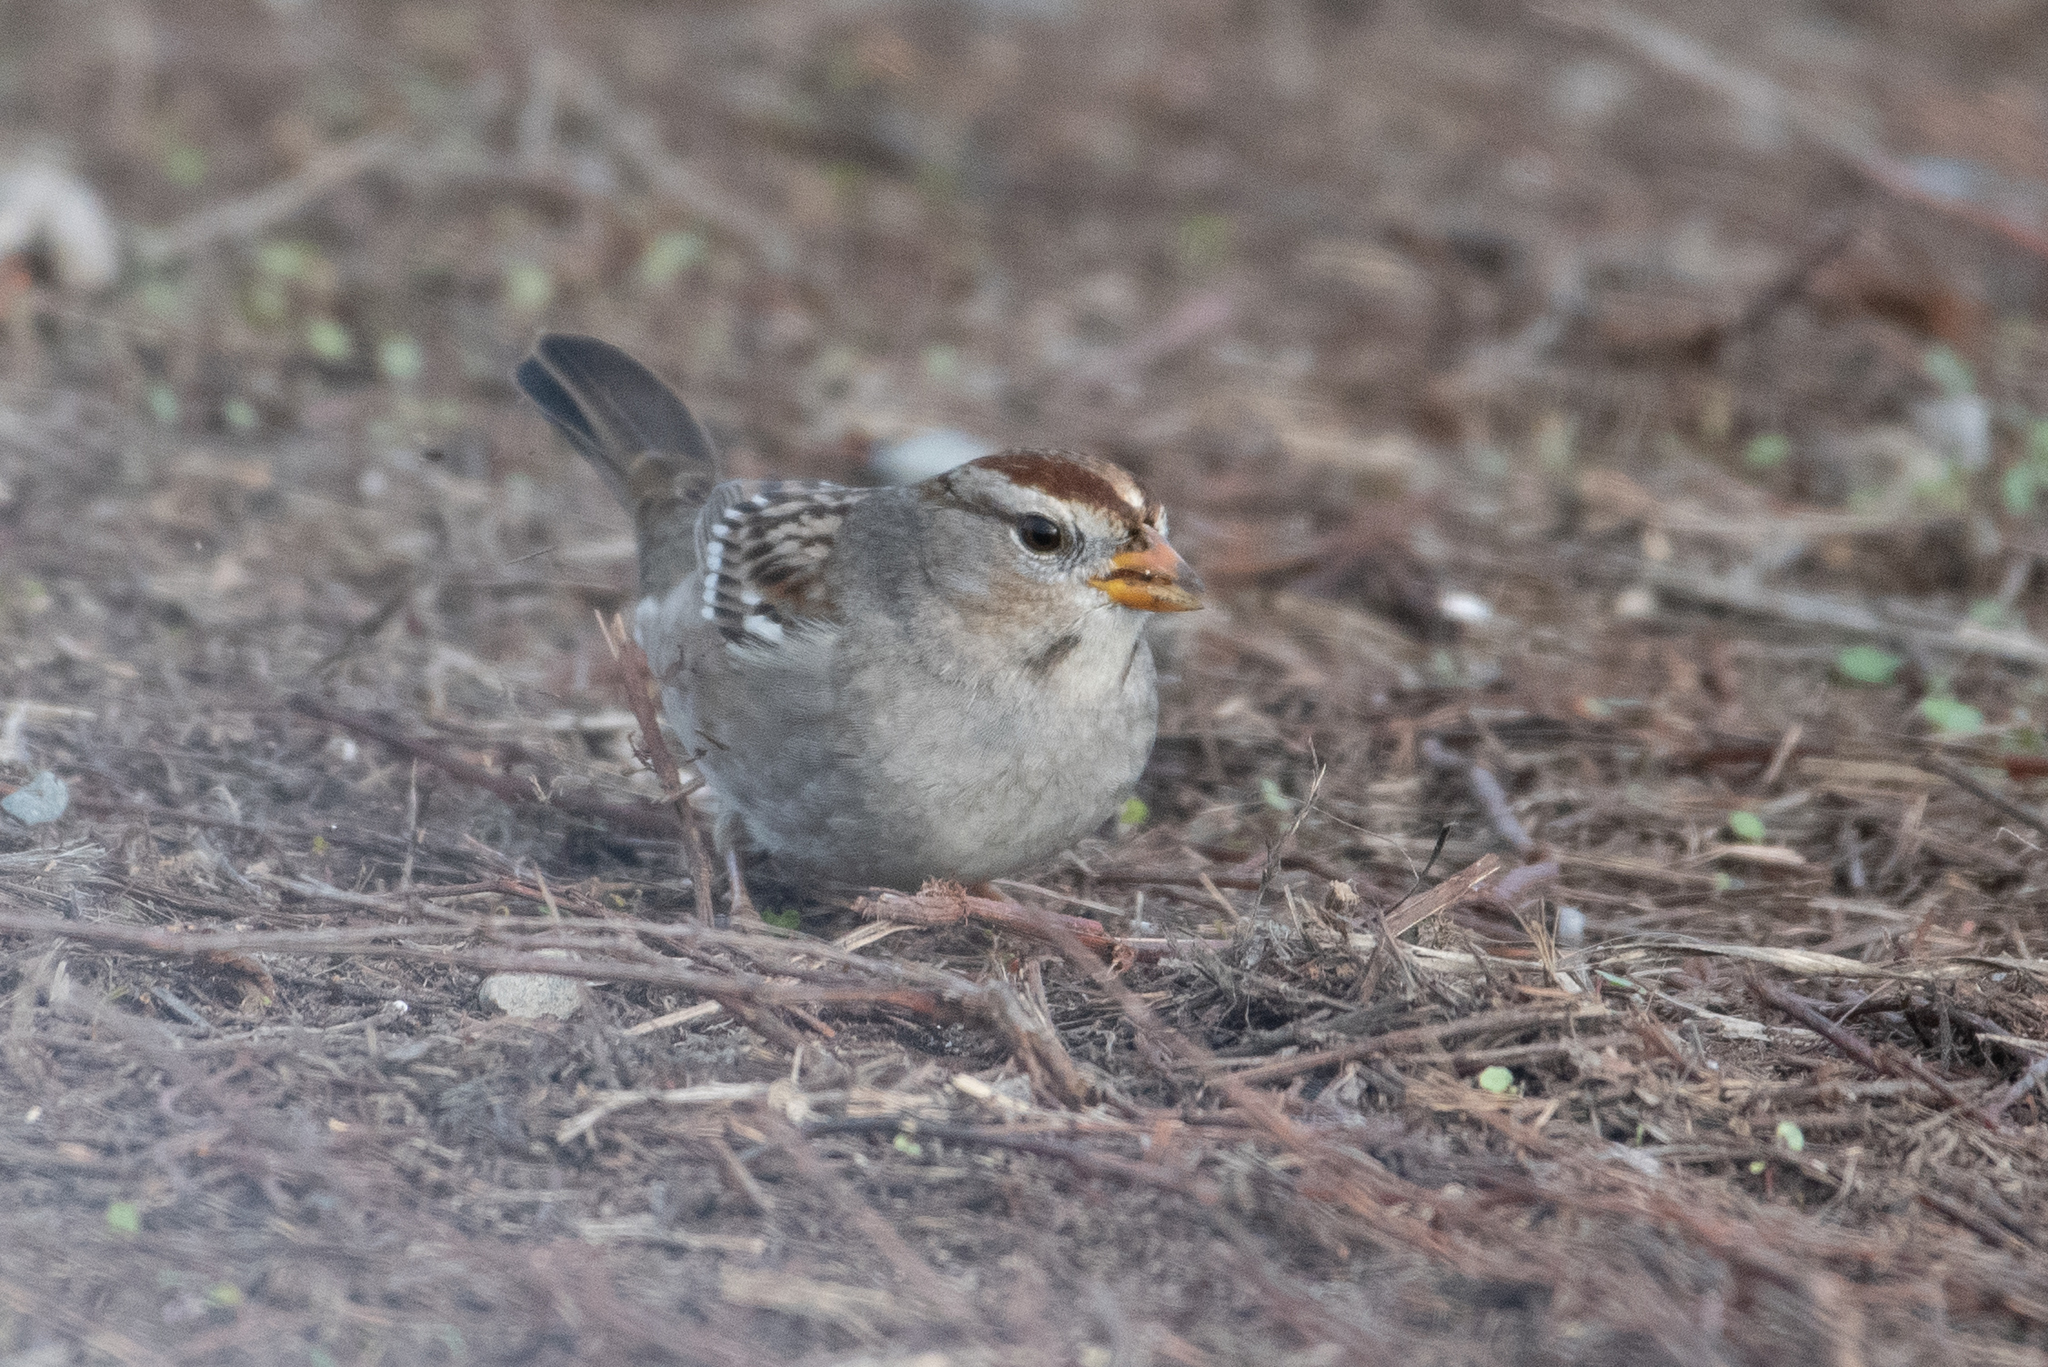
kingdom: Animalia
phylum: Chordata
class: Aves
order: Passeriformes
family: Passerellidae
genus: Zonotrichia
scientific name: Zonotrichia leucophrys
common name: White-crowned sparrow
